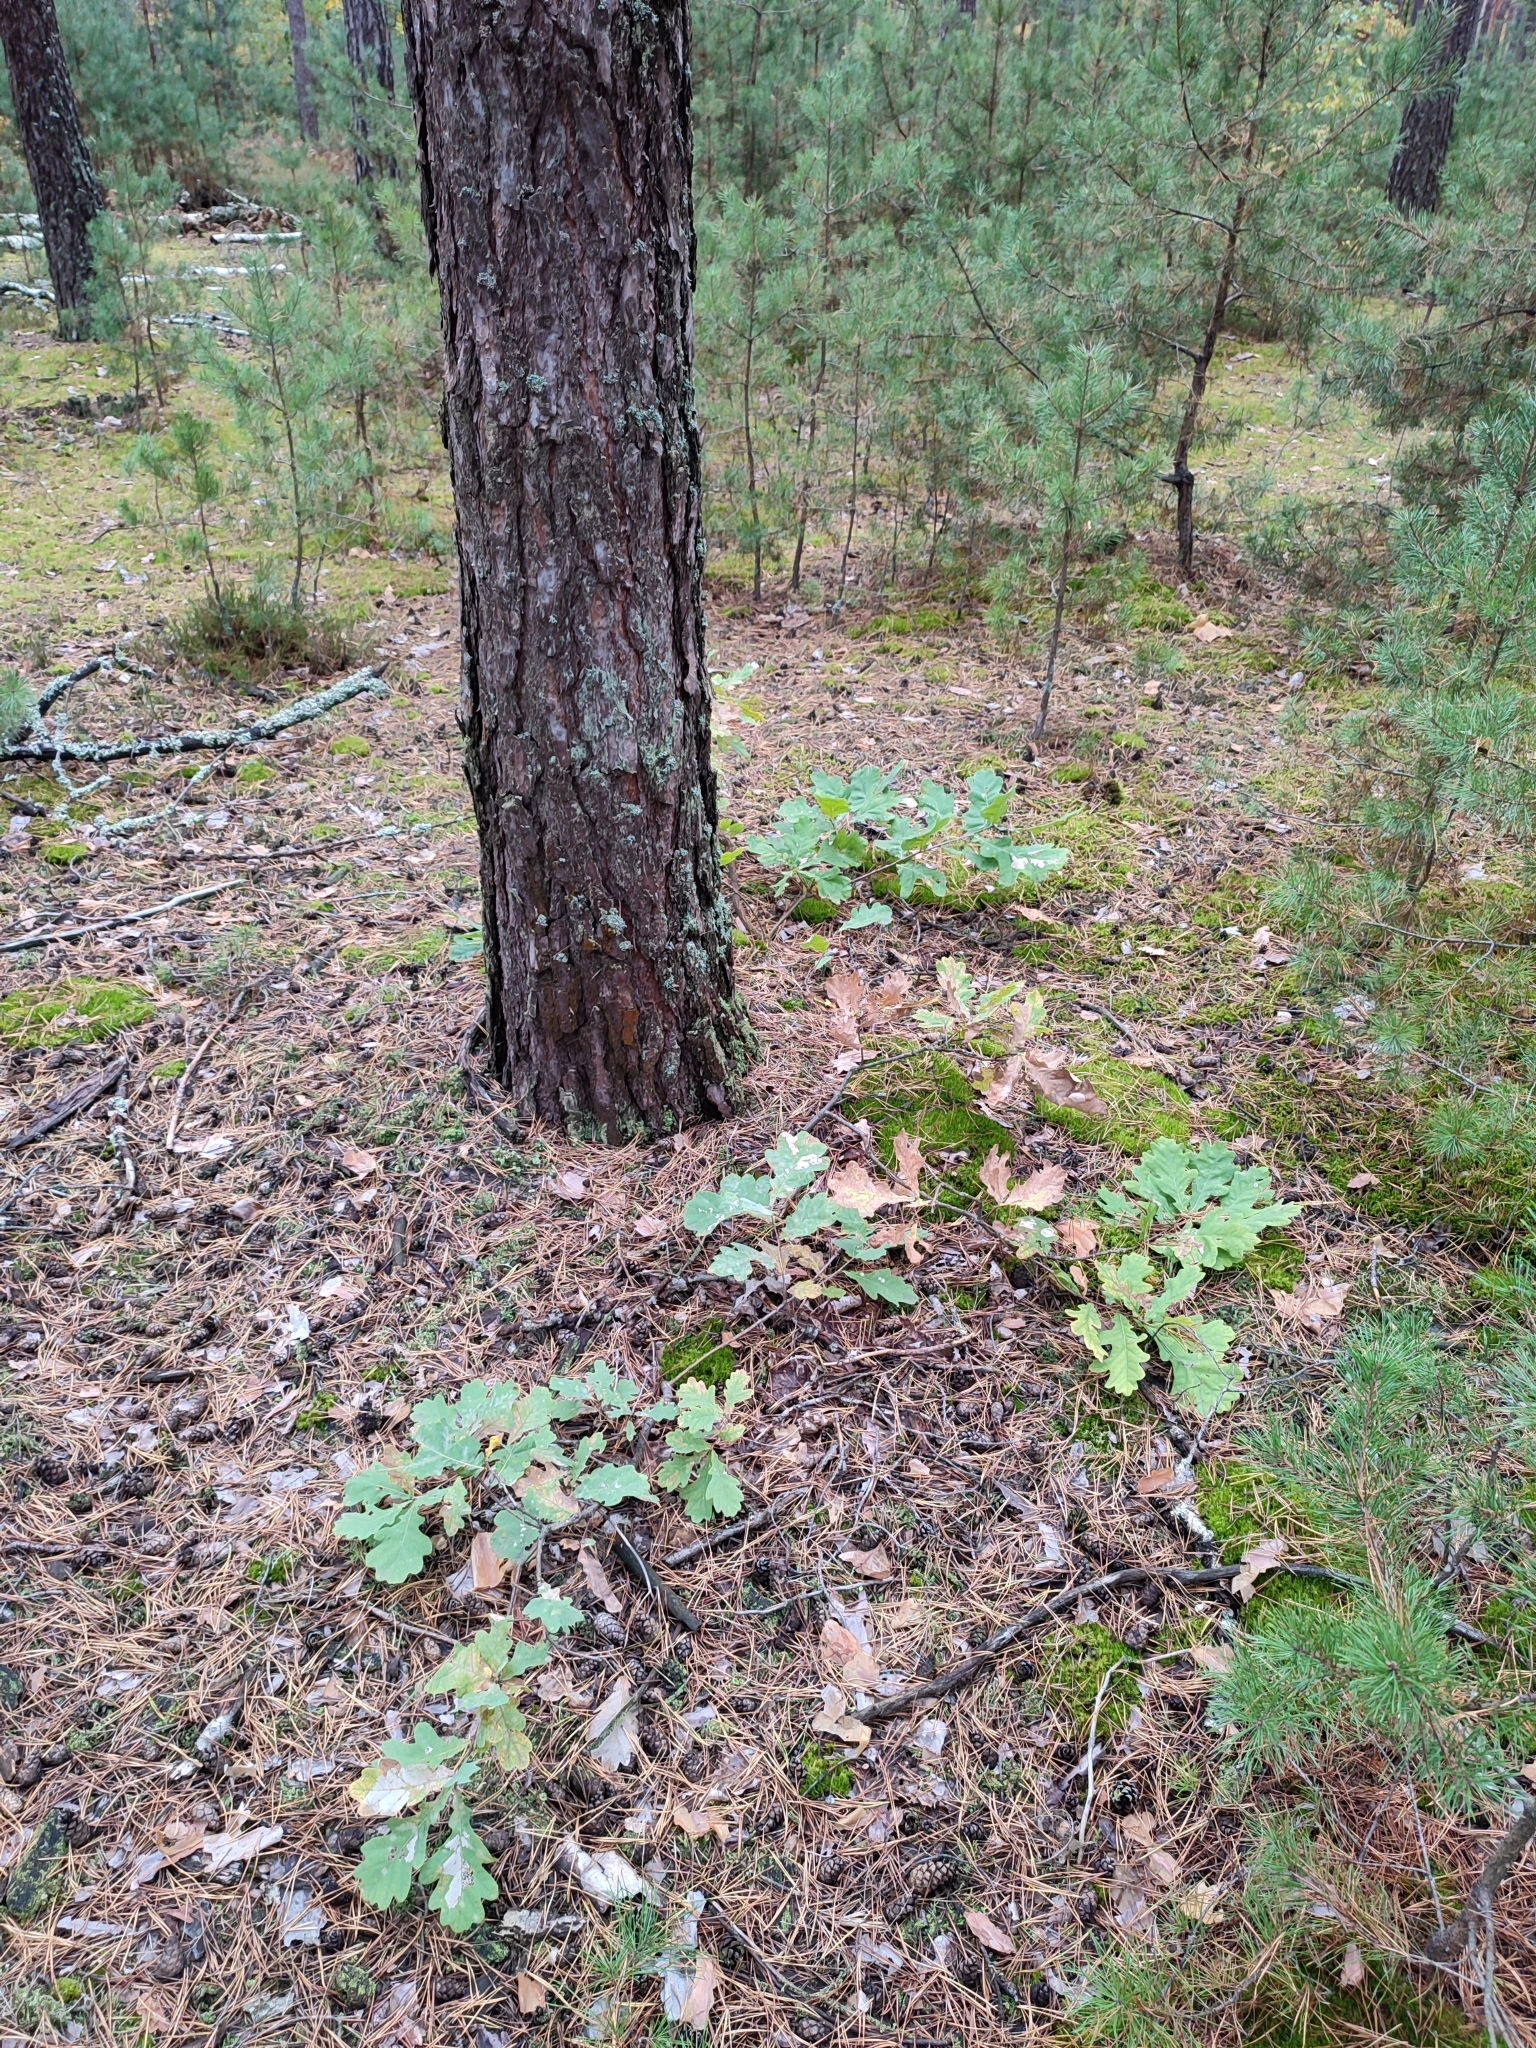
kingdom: Plantae
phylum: Tracheophyta
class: Magnoliopsida
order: Fagales
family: Fagaceae
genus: Quercus
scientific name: Quercus robur
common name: Pedunculate oak
